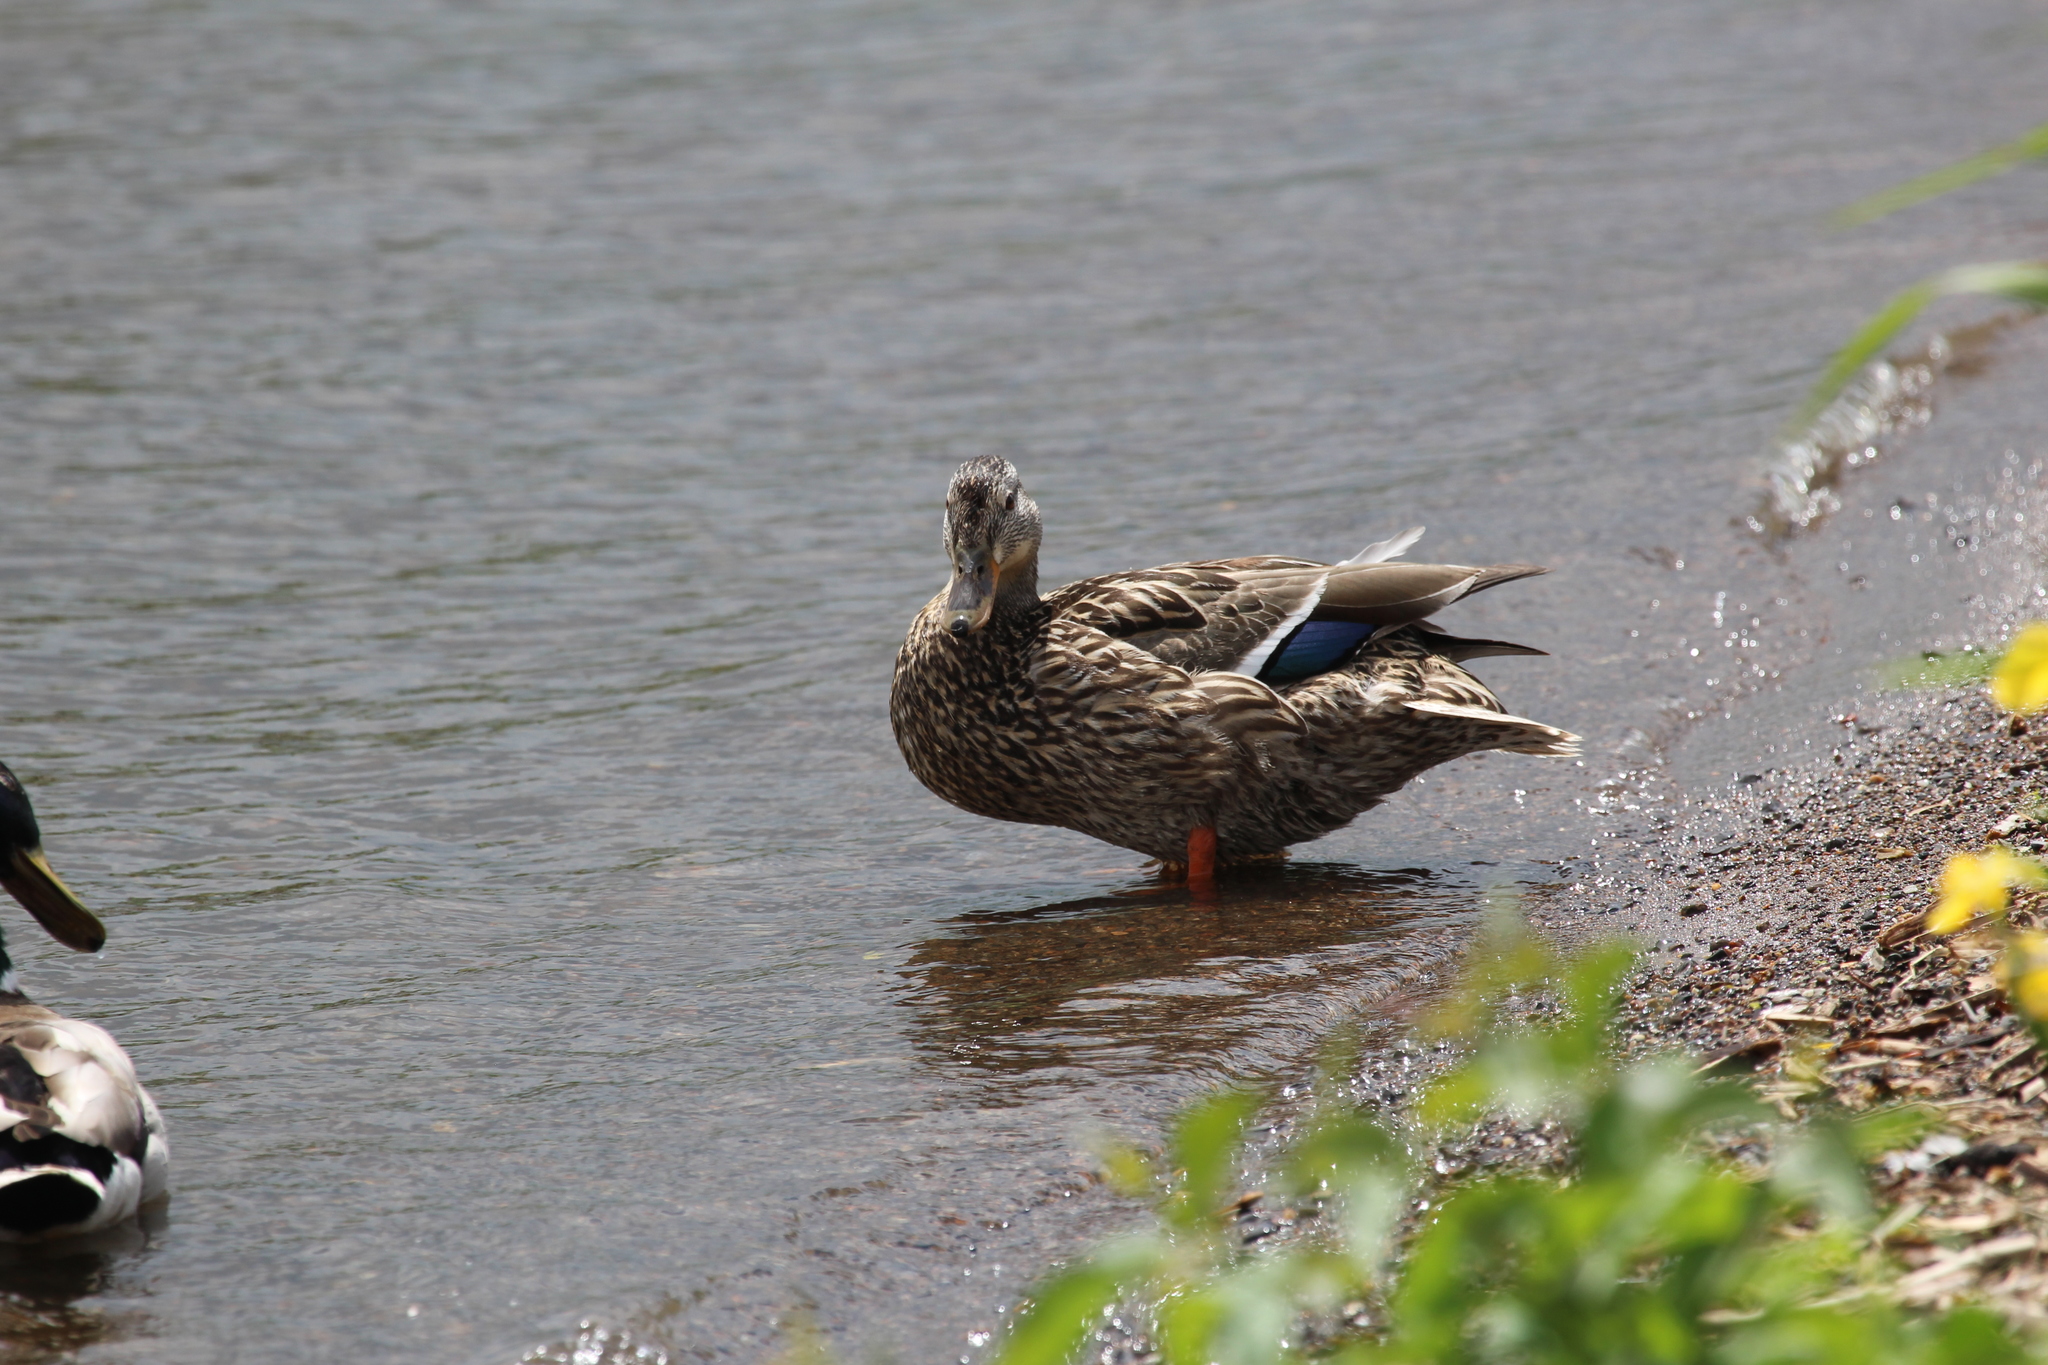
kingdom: Animalia
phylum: Chordata
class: Aves
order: Anseriformes
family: Anatidae
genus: Anas
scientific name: Anas platyrhynchos
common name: Mallard
